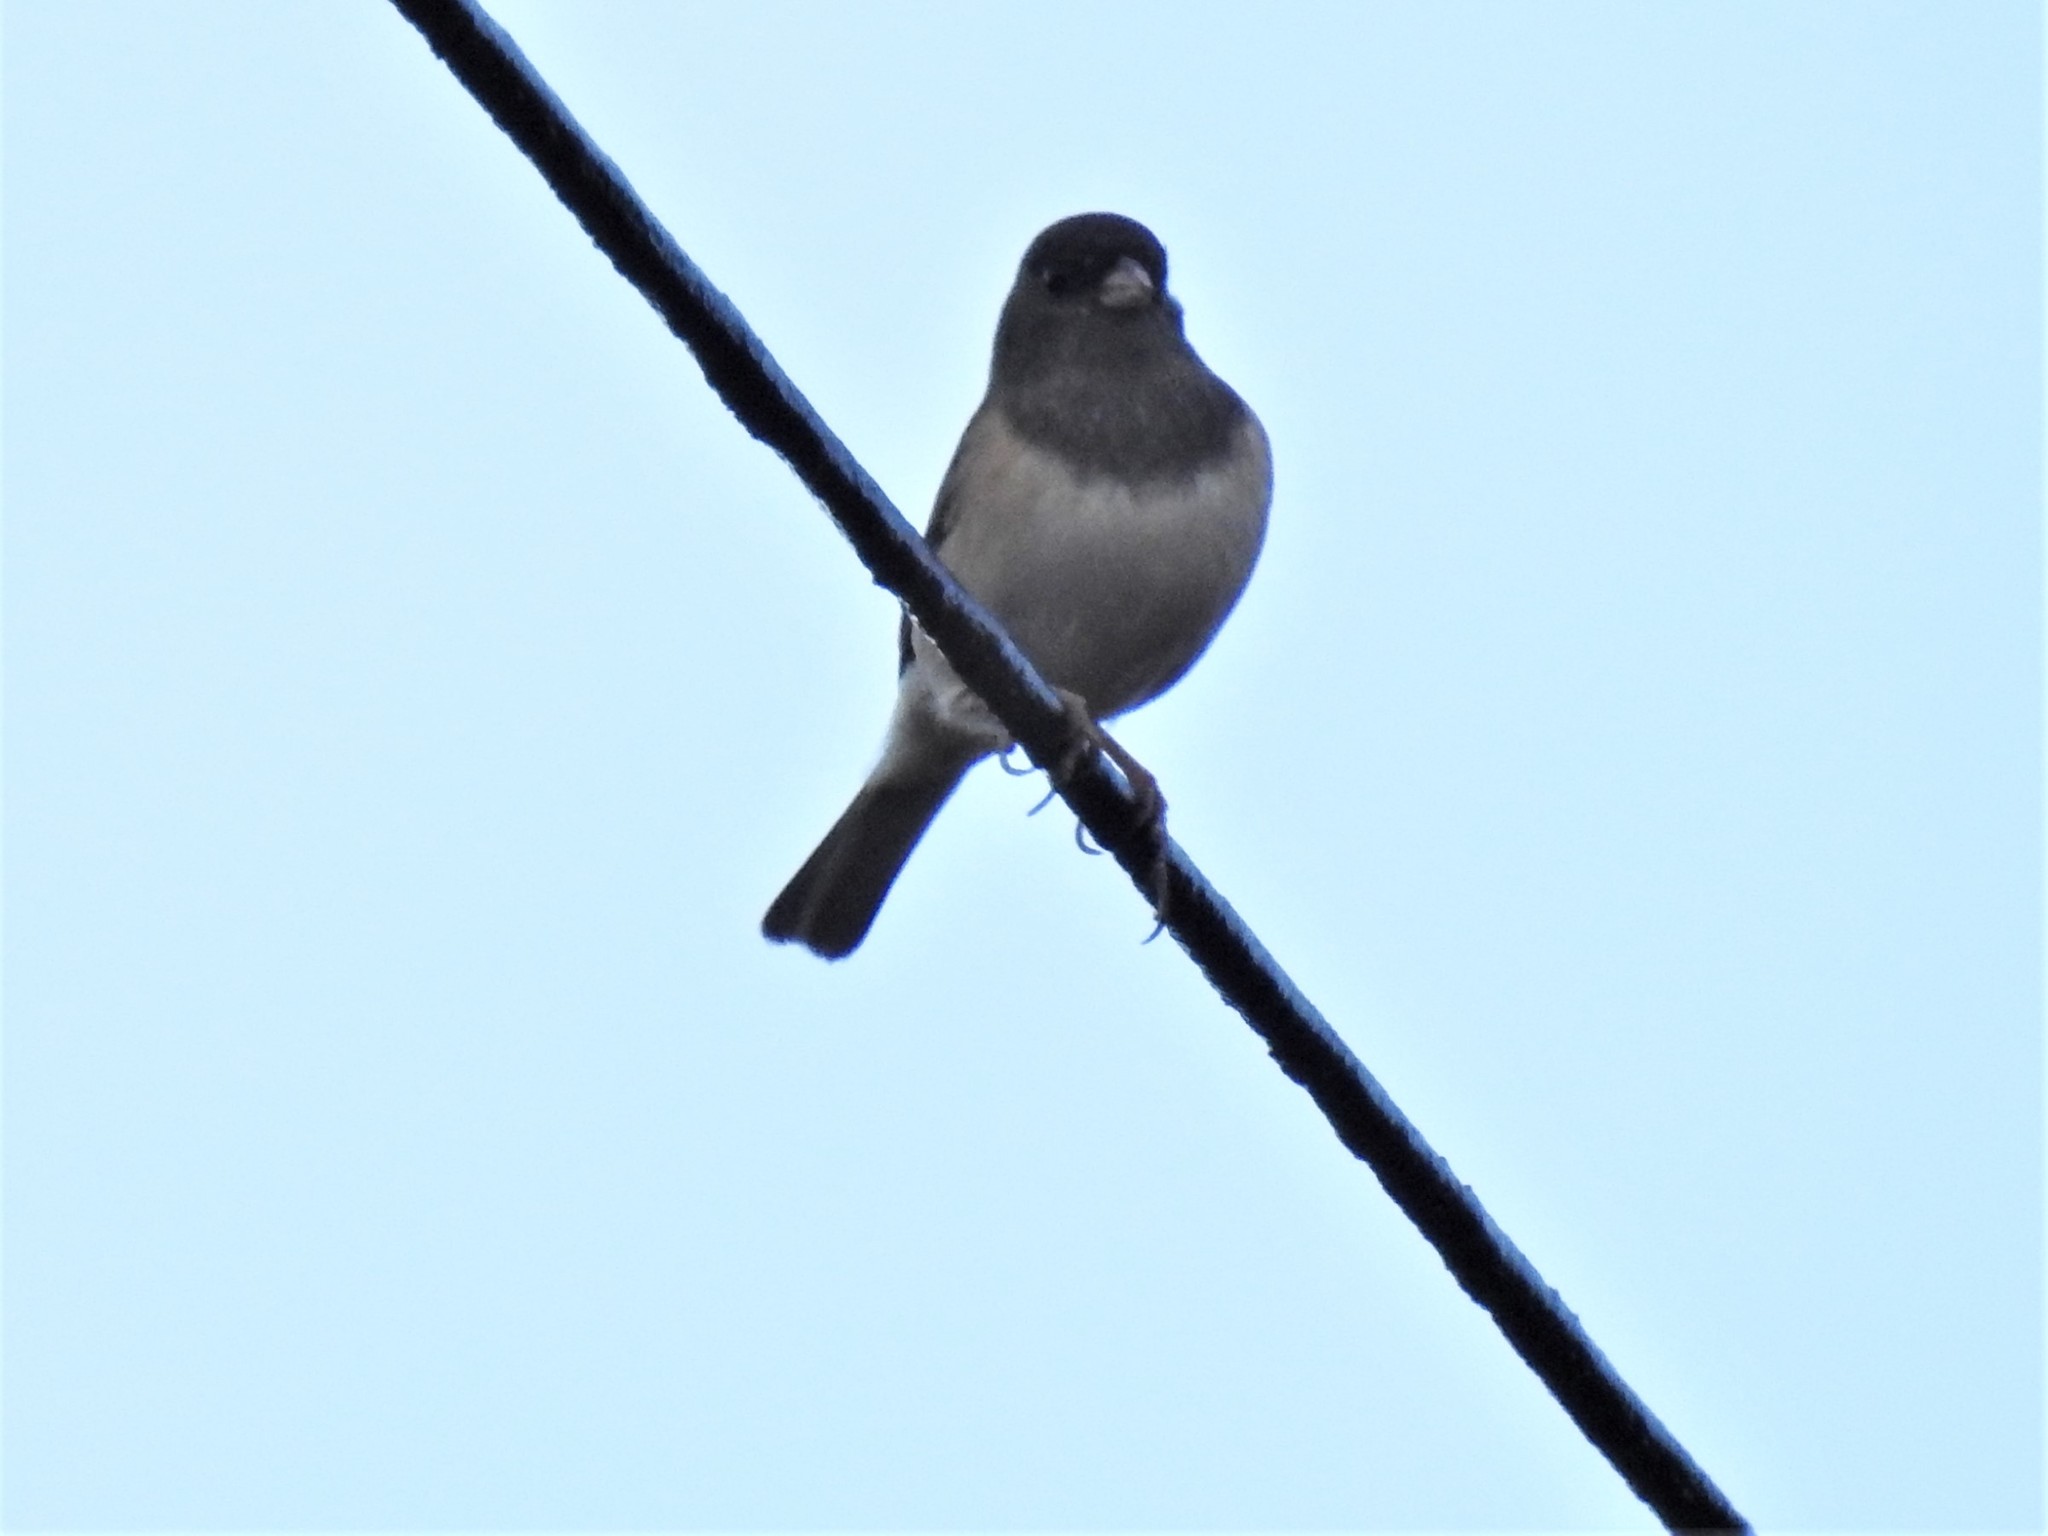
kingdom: Animalia
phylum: Chordata
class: Aves
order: Passeriformes
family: Passerellidae
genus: Junco
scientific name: Junco hyemalis
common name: Dark-eyed junco
